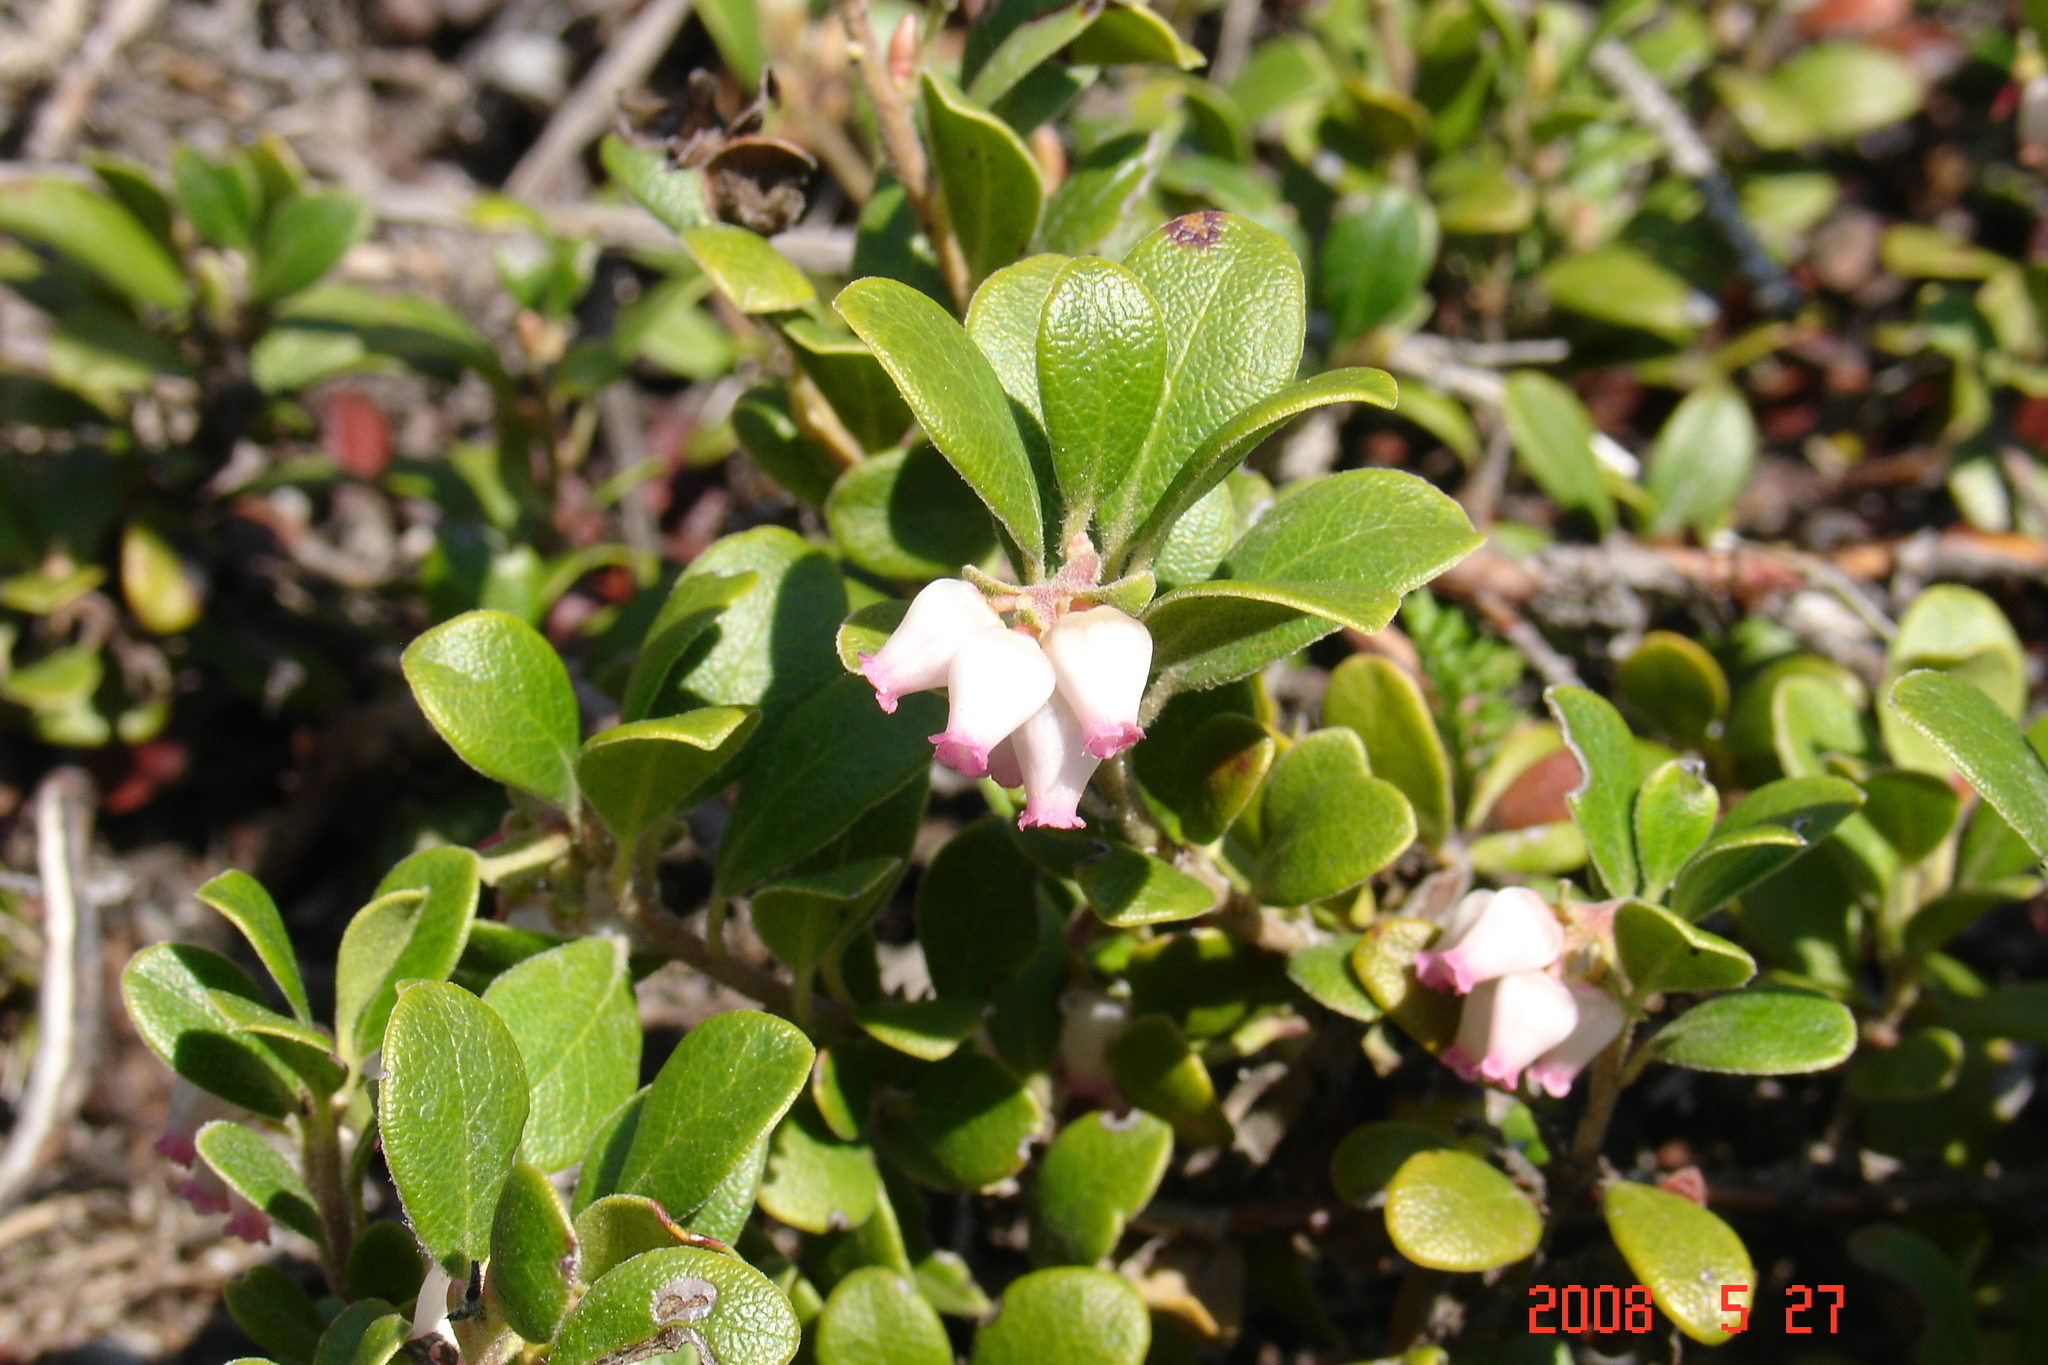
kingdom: Plantae
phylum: Tracheophyta
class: Magnoliopsida
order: Ericales
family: Ericaceae
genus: Arctostaphylos
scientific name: Arctostaphylos uva-ursi
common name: Bearberry
